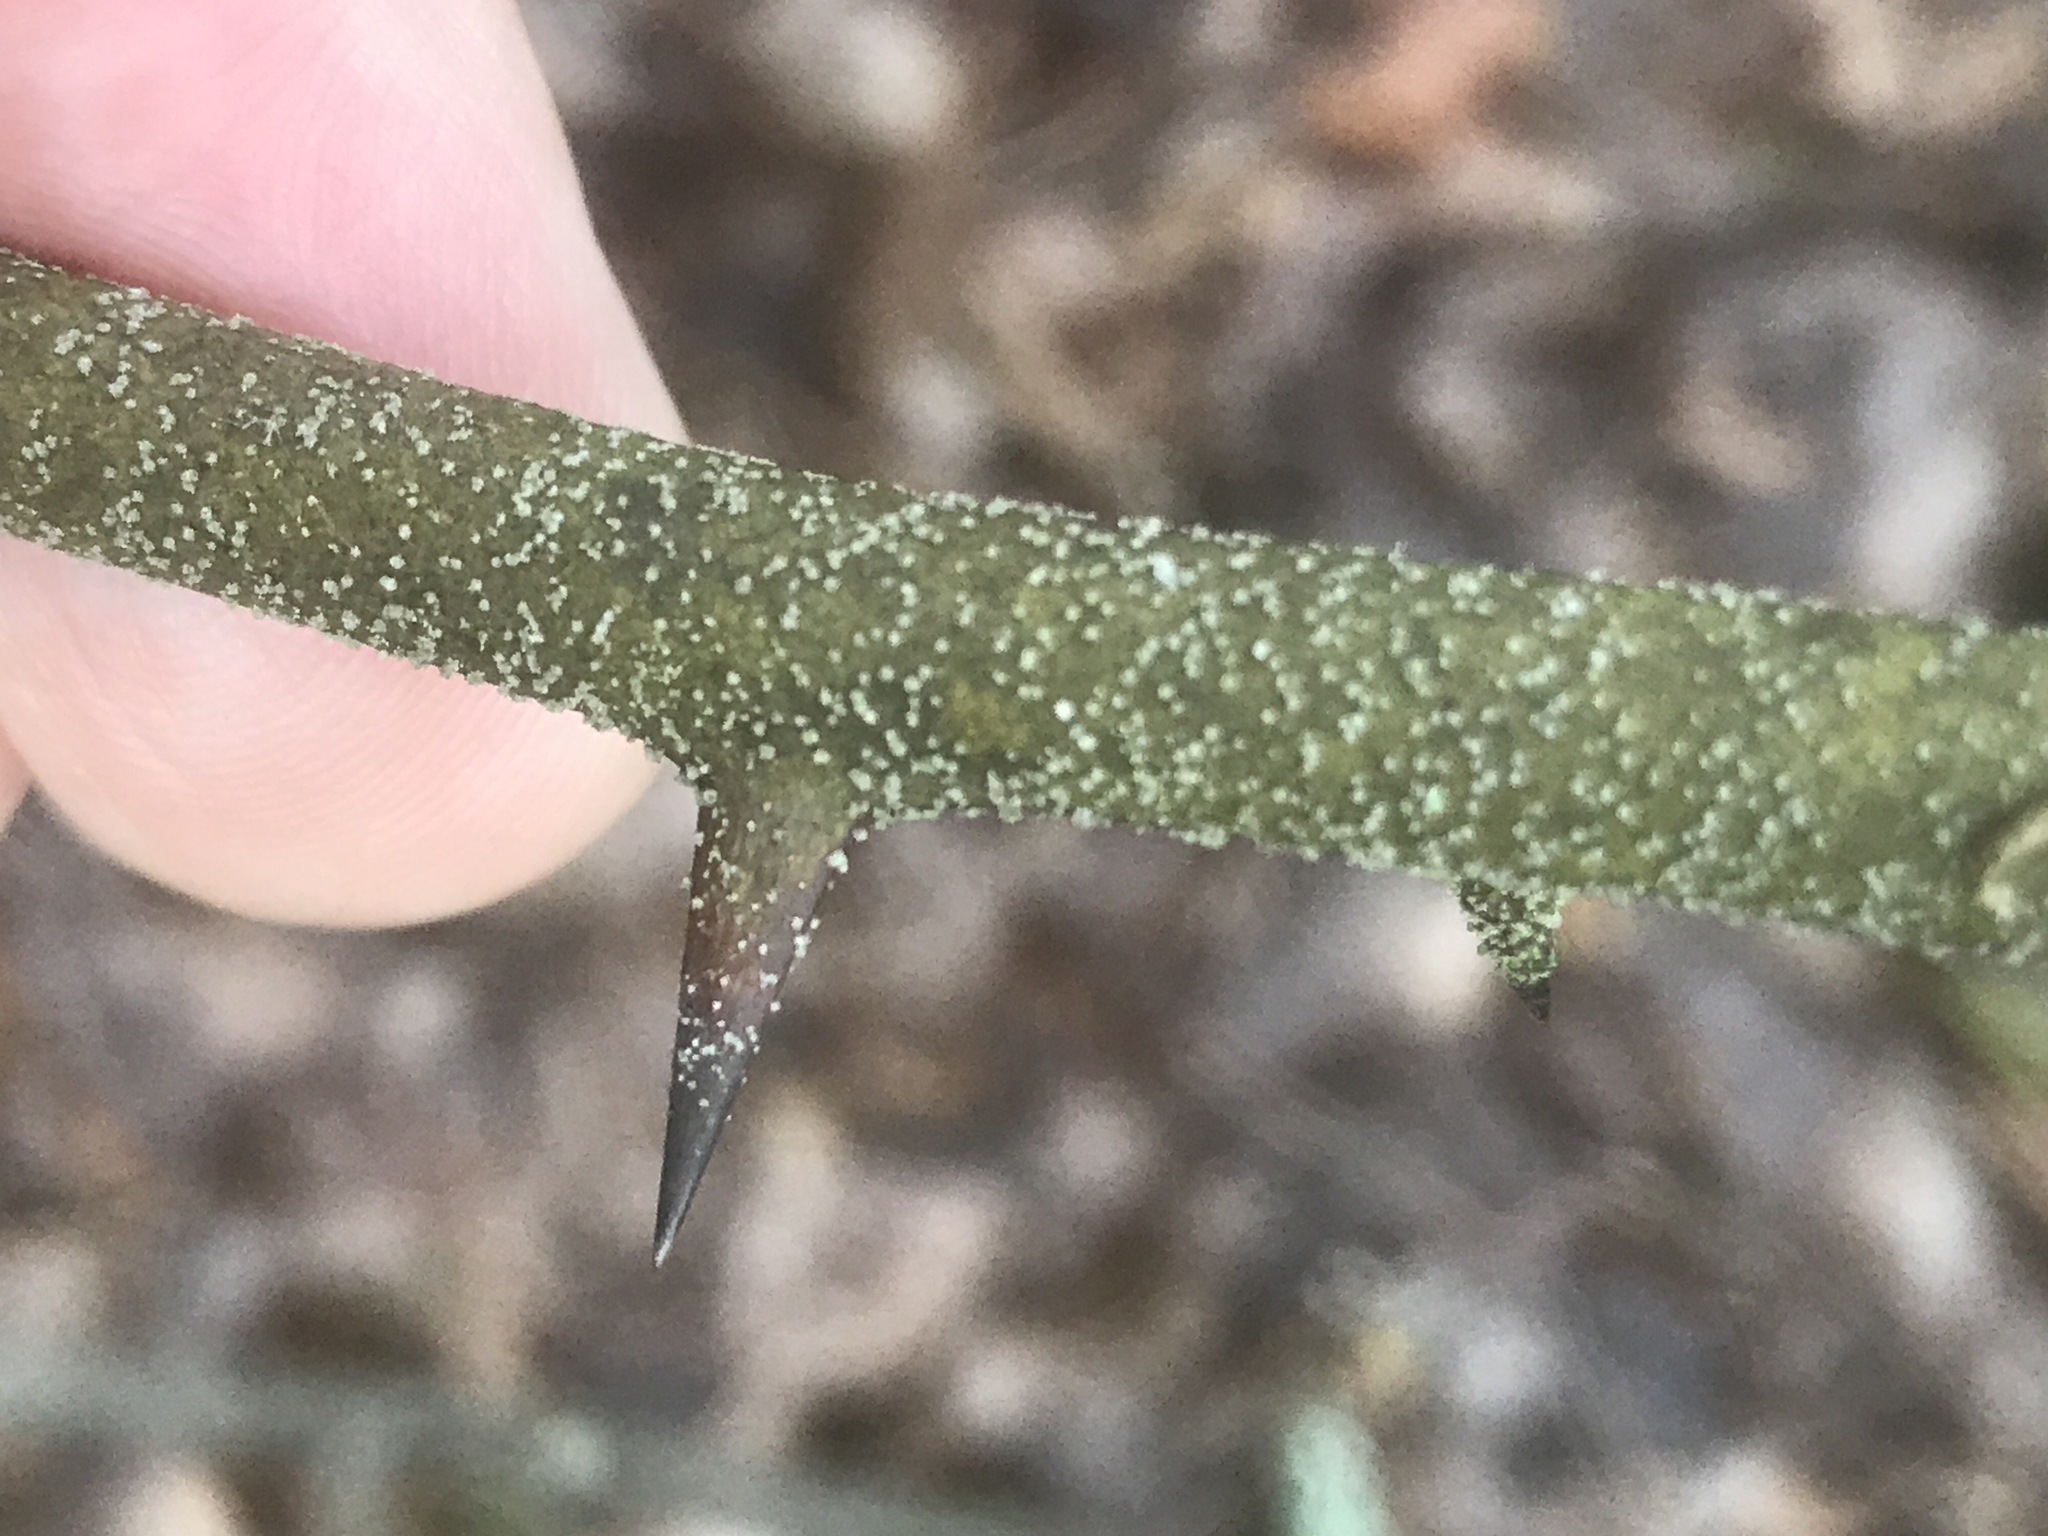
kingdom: Plantae
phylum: Tracheophyta
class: Liliopsida
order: Liliales
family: Smilacaceae
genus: Smilax
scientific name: Smilax bona-nox
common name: Catbrier
